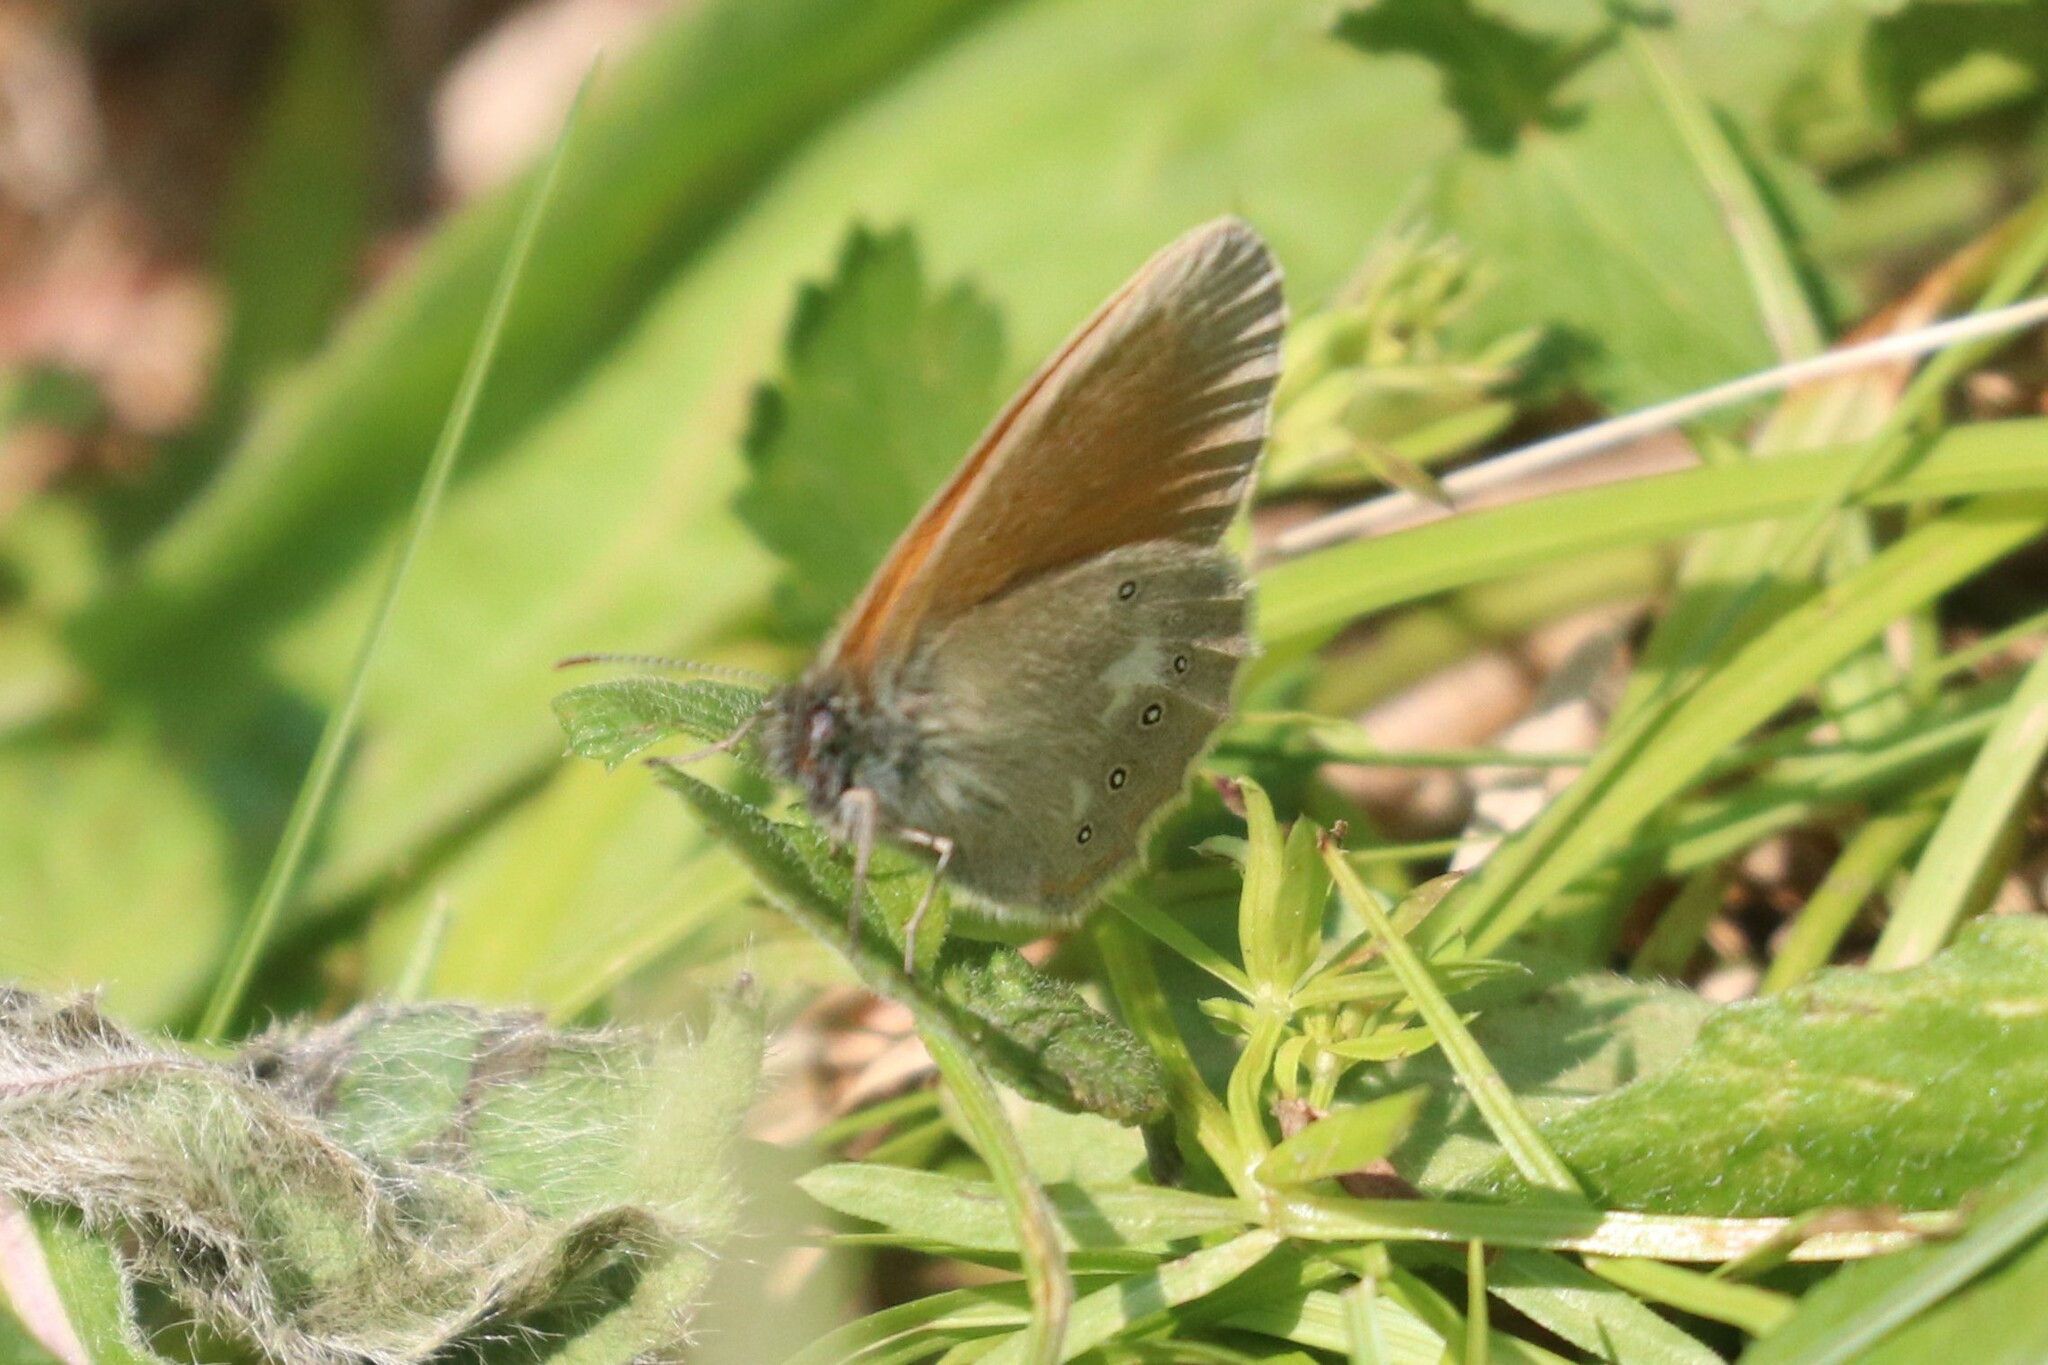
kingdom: Animalia
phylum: Arthropoda
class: Insecta
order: Lepidoptera
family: Nymphalidae
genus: Coenonympha
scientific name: Coenonympha iphis
